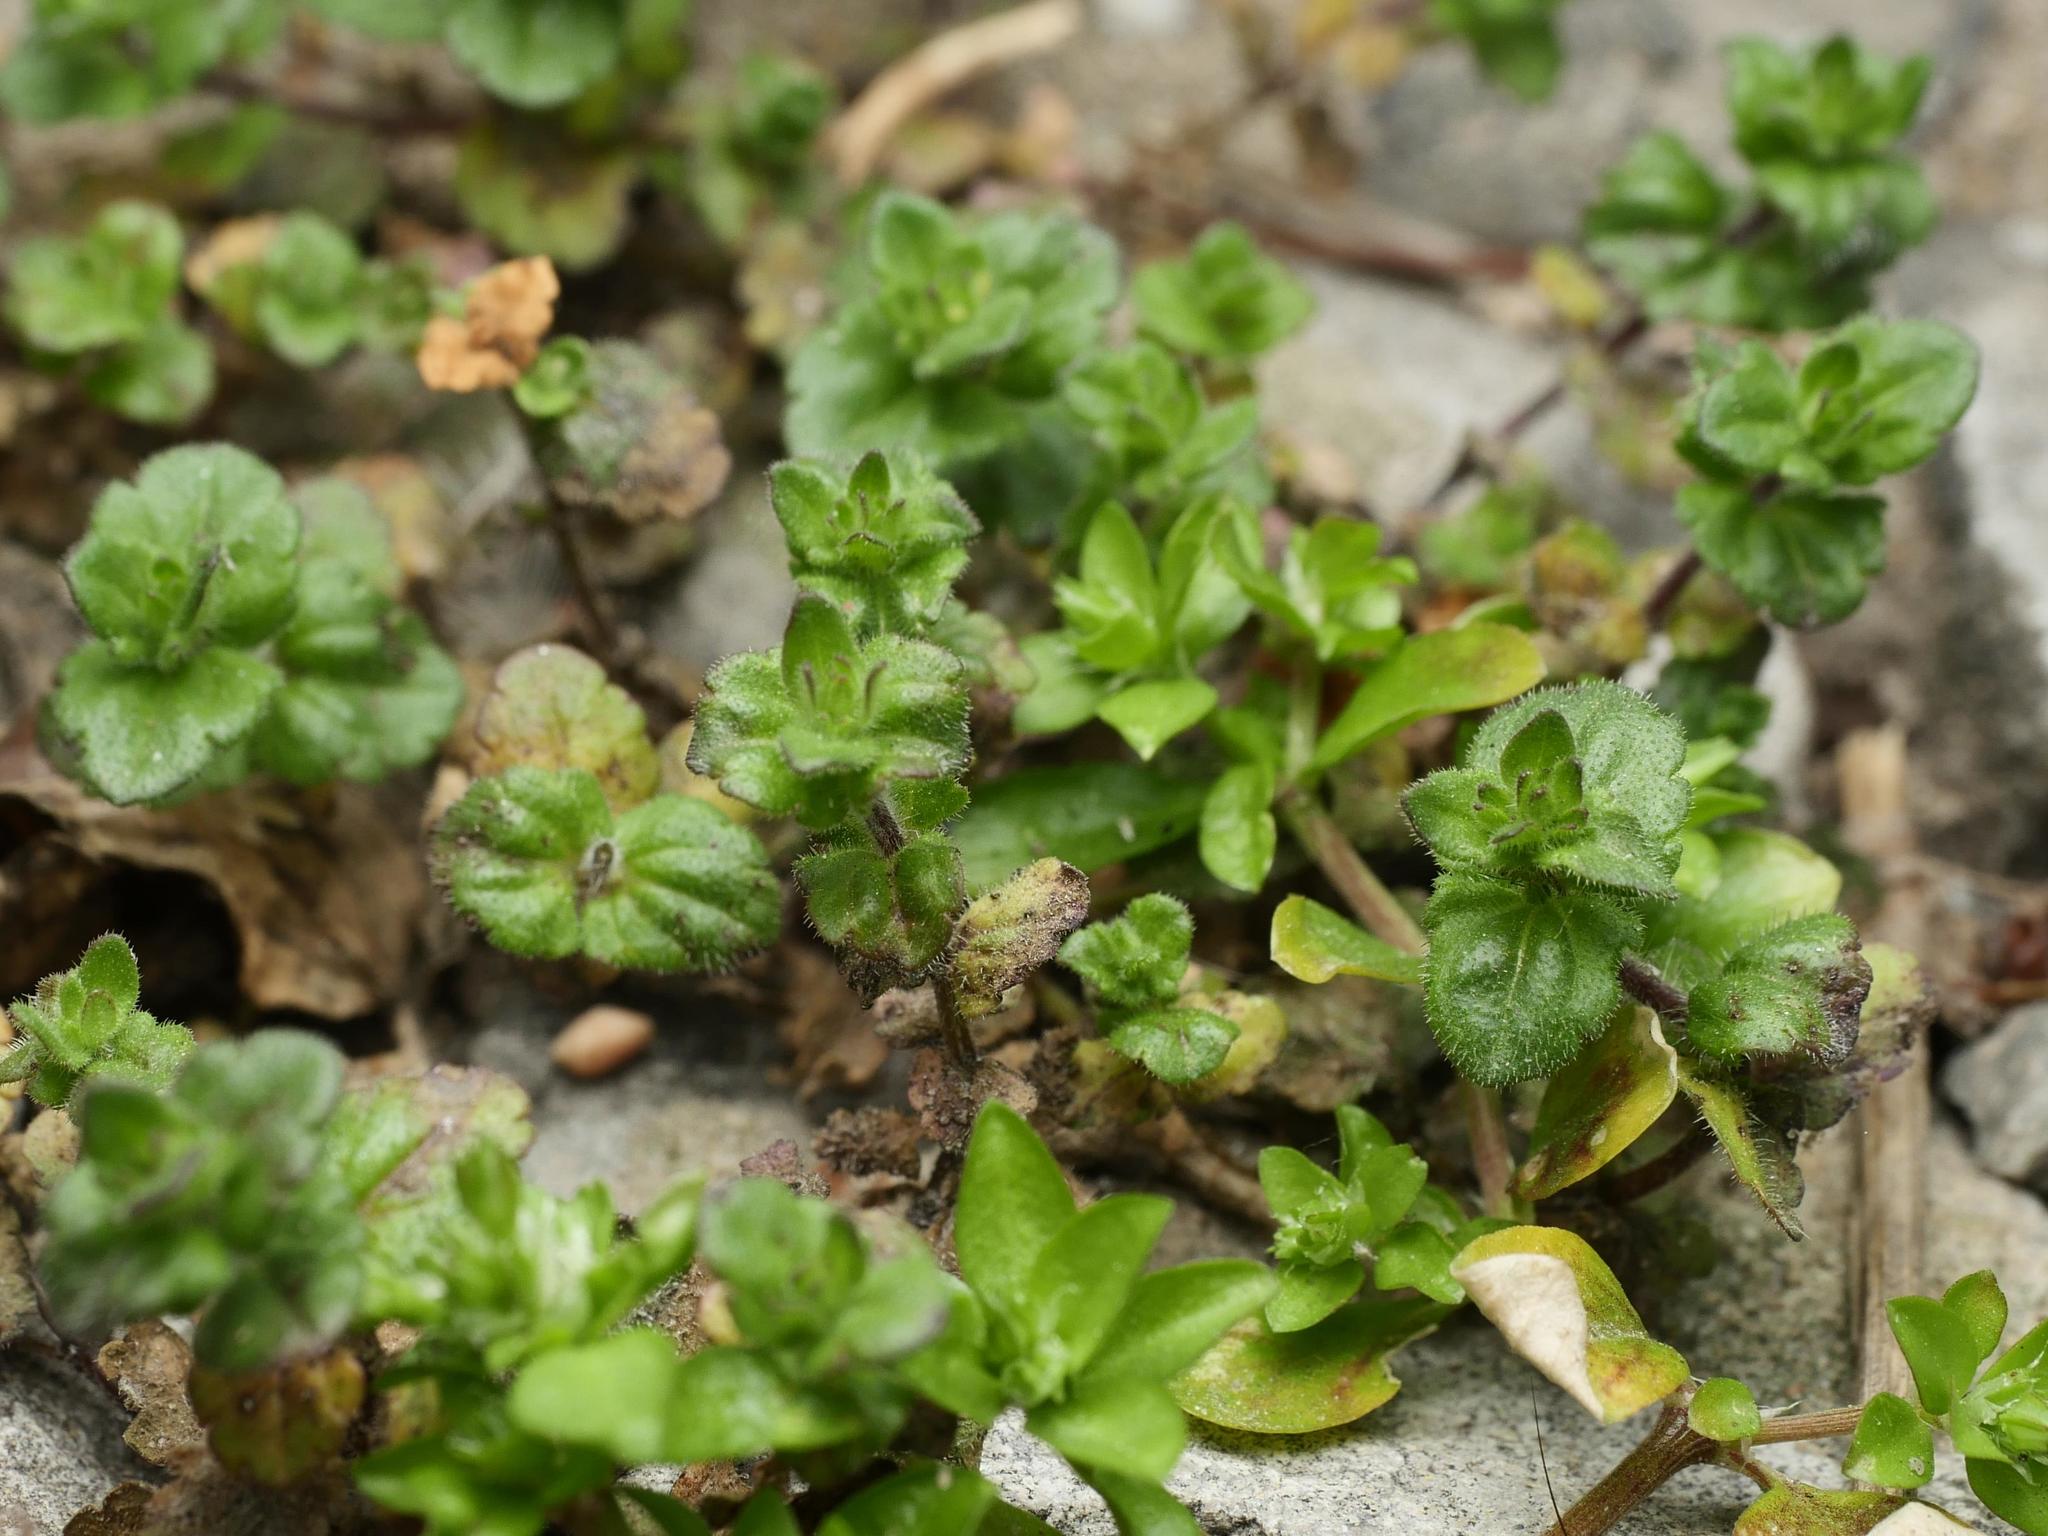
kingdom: Plantae
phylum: Tracheophyta
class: Magnoliopsida
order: Lamiales
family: Plantaginaceae
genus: Veronica
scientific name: Veronica arvensis
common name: Corn speedwell
